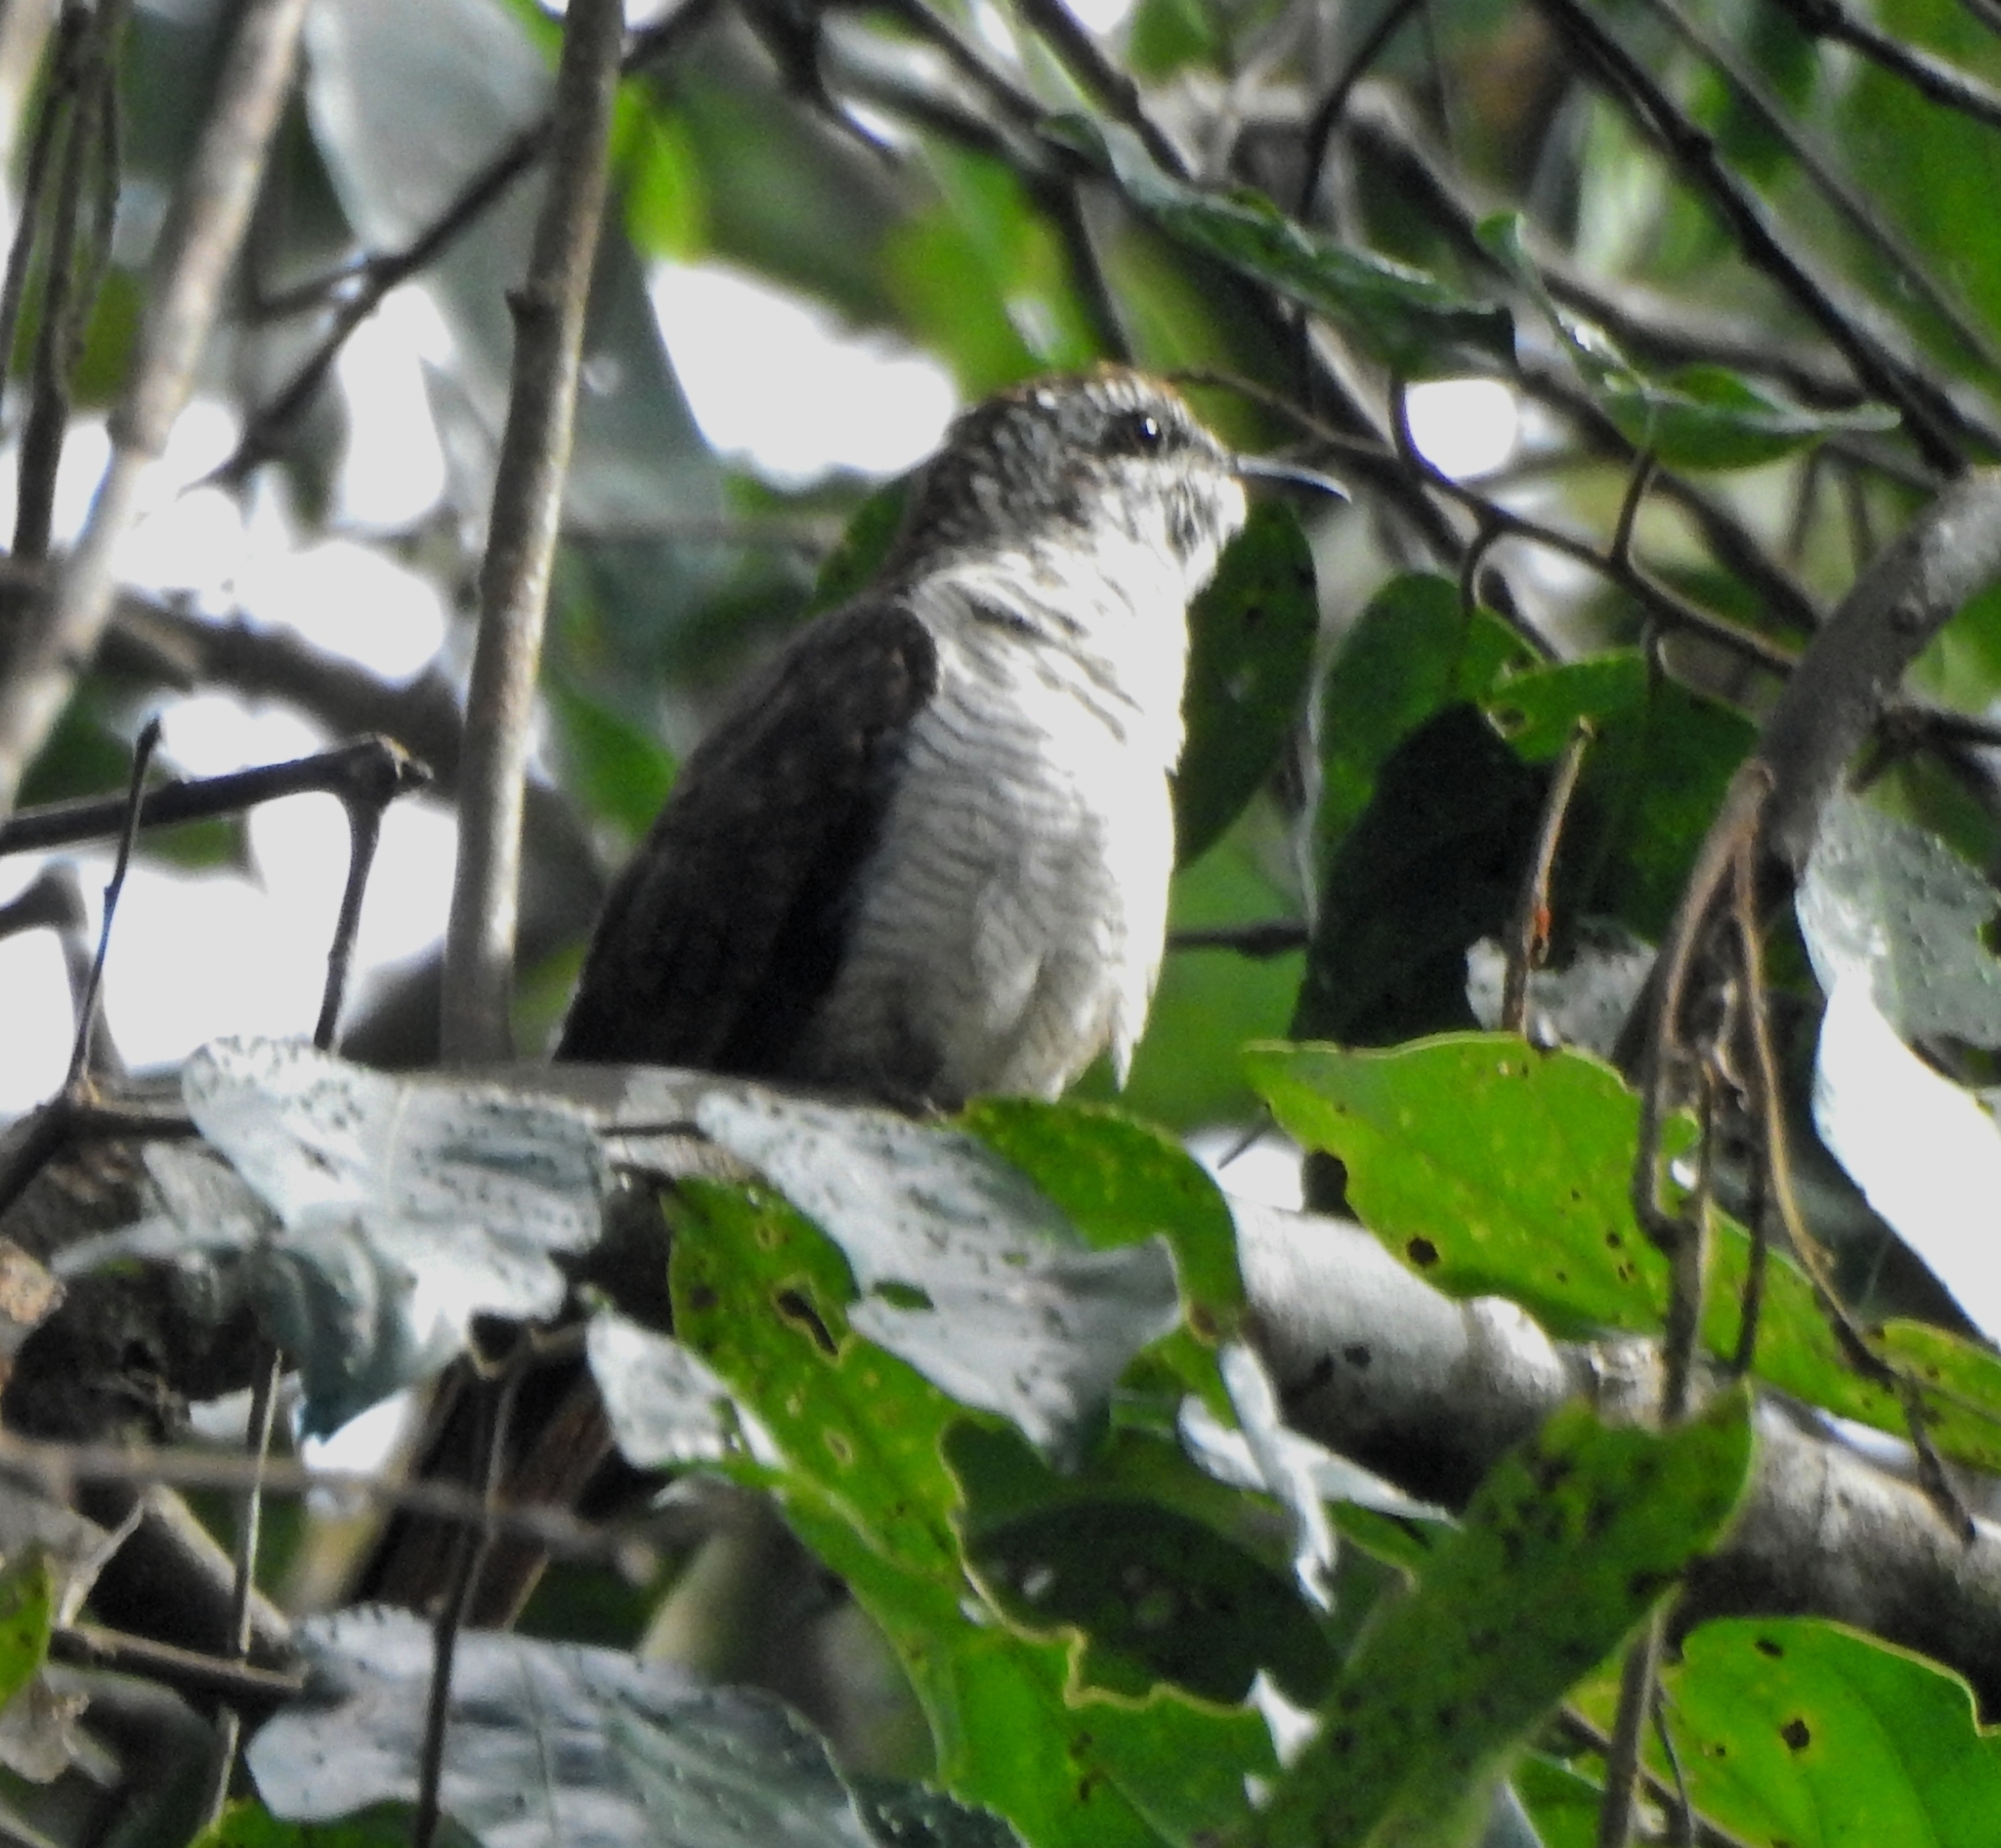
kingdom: Animalia
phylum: Chordata
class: Aves
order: Cuculiformes
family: Cuculidae
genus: Cacomantis
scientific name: Cacomantis sonneratii
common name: Banded bay cuckoo
